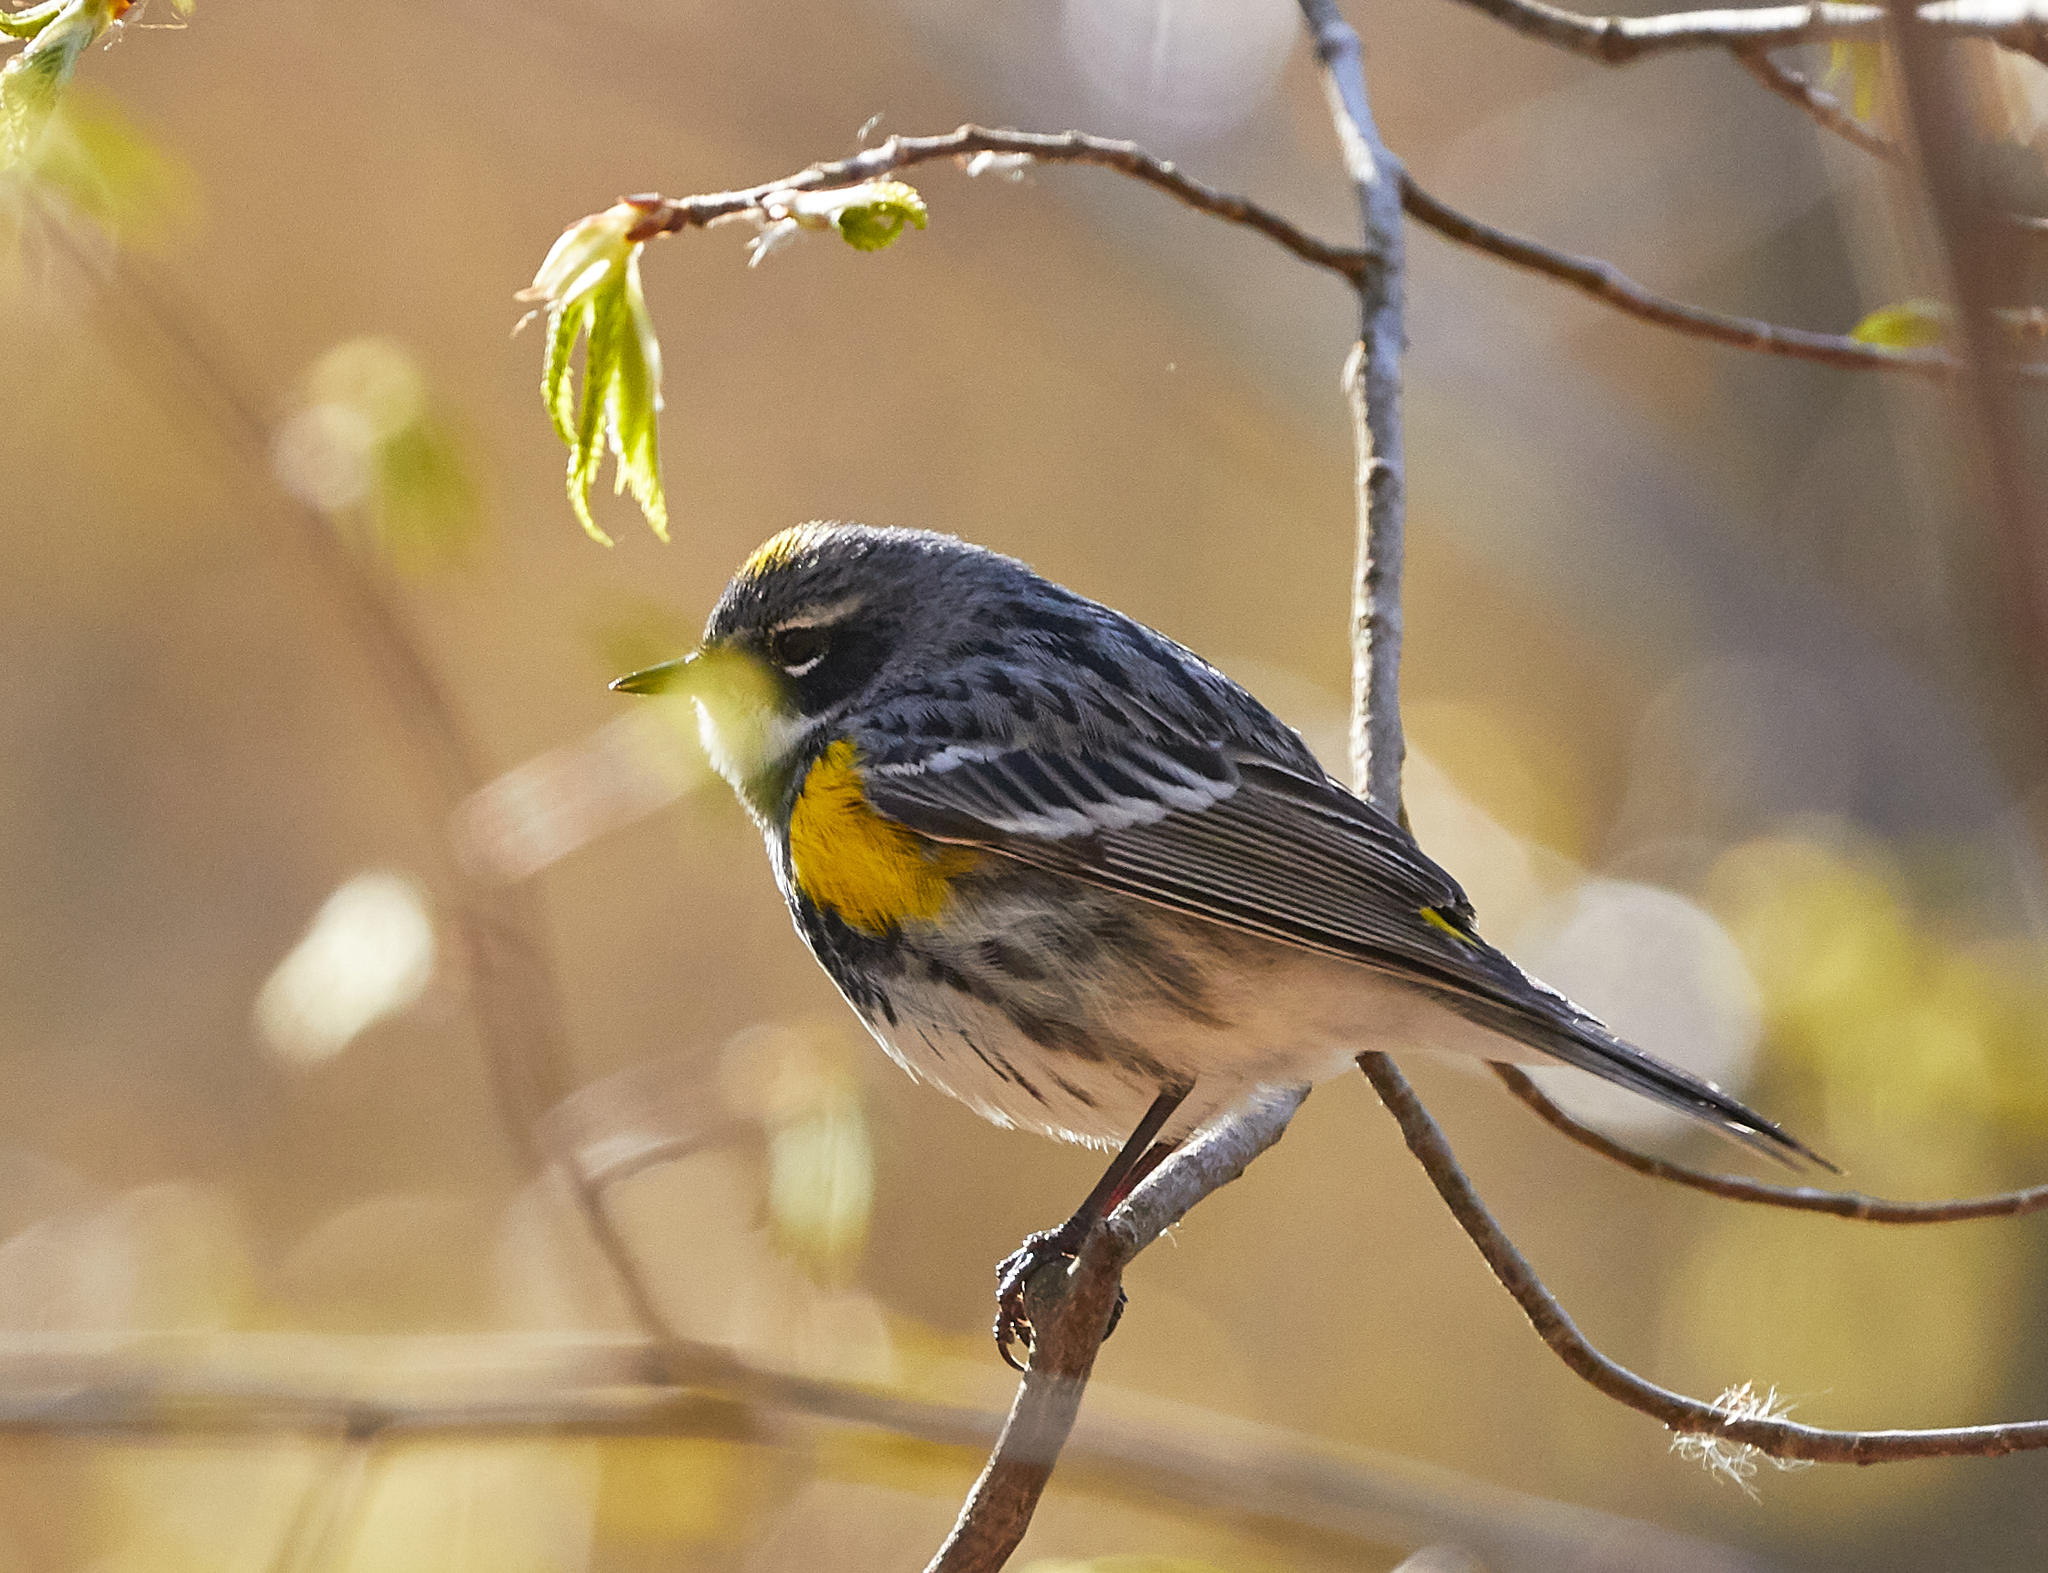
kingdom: Animalia
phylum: Chordata
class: Aves
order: Passeriformes
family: Parulidae
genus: Setophaga
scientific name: Setophaga coronata
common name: Myrtle warbler
